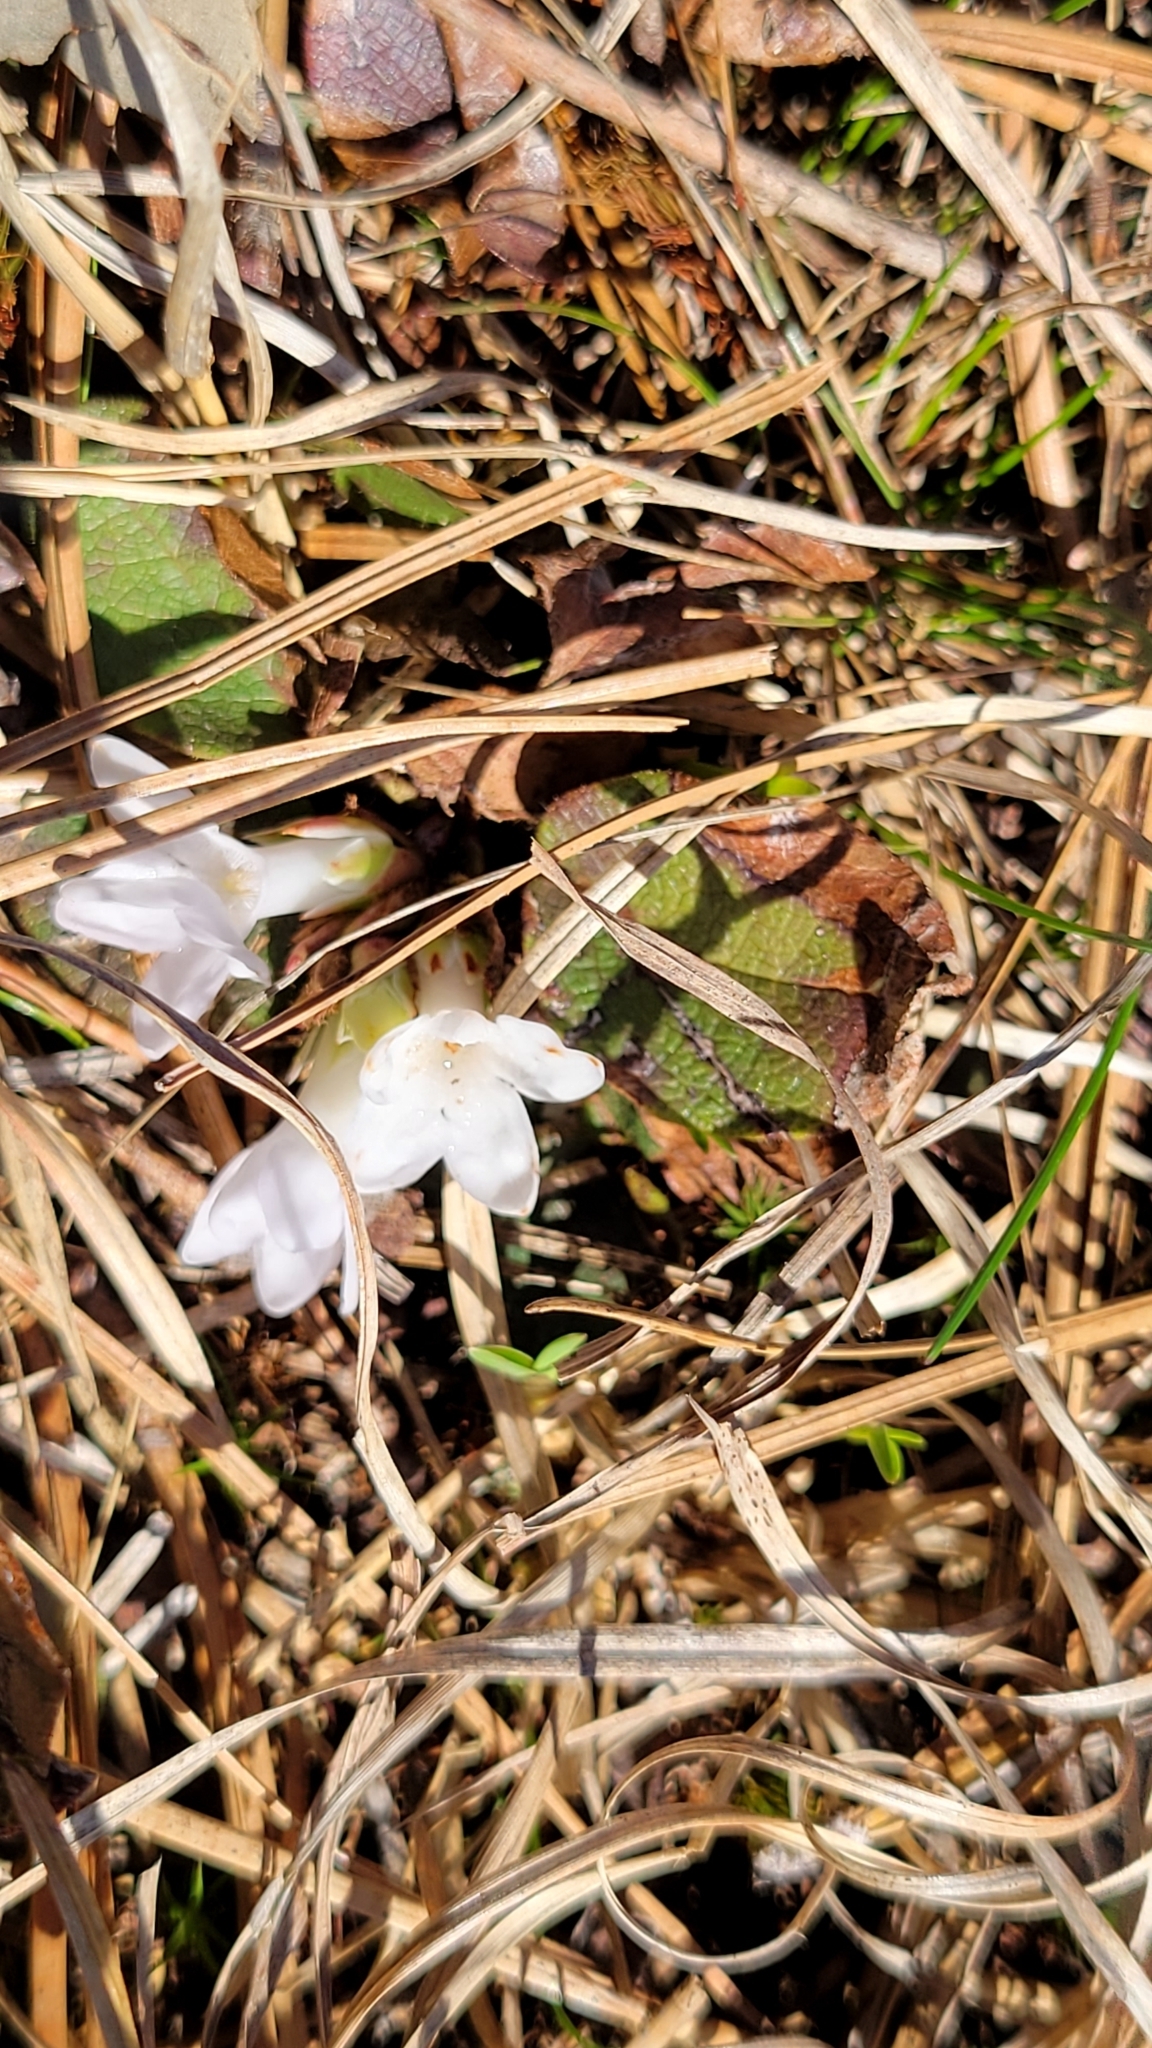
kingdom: Plantae
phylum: Tracheophyta
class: Magnoliopsida
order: Ericales
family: Ericaceae
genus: Epigaea
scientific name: Epigaea repens
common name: Gravelroot
